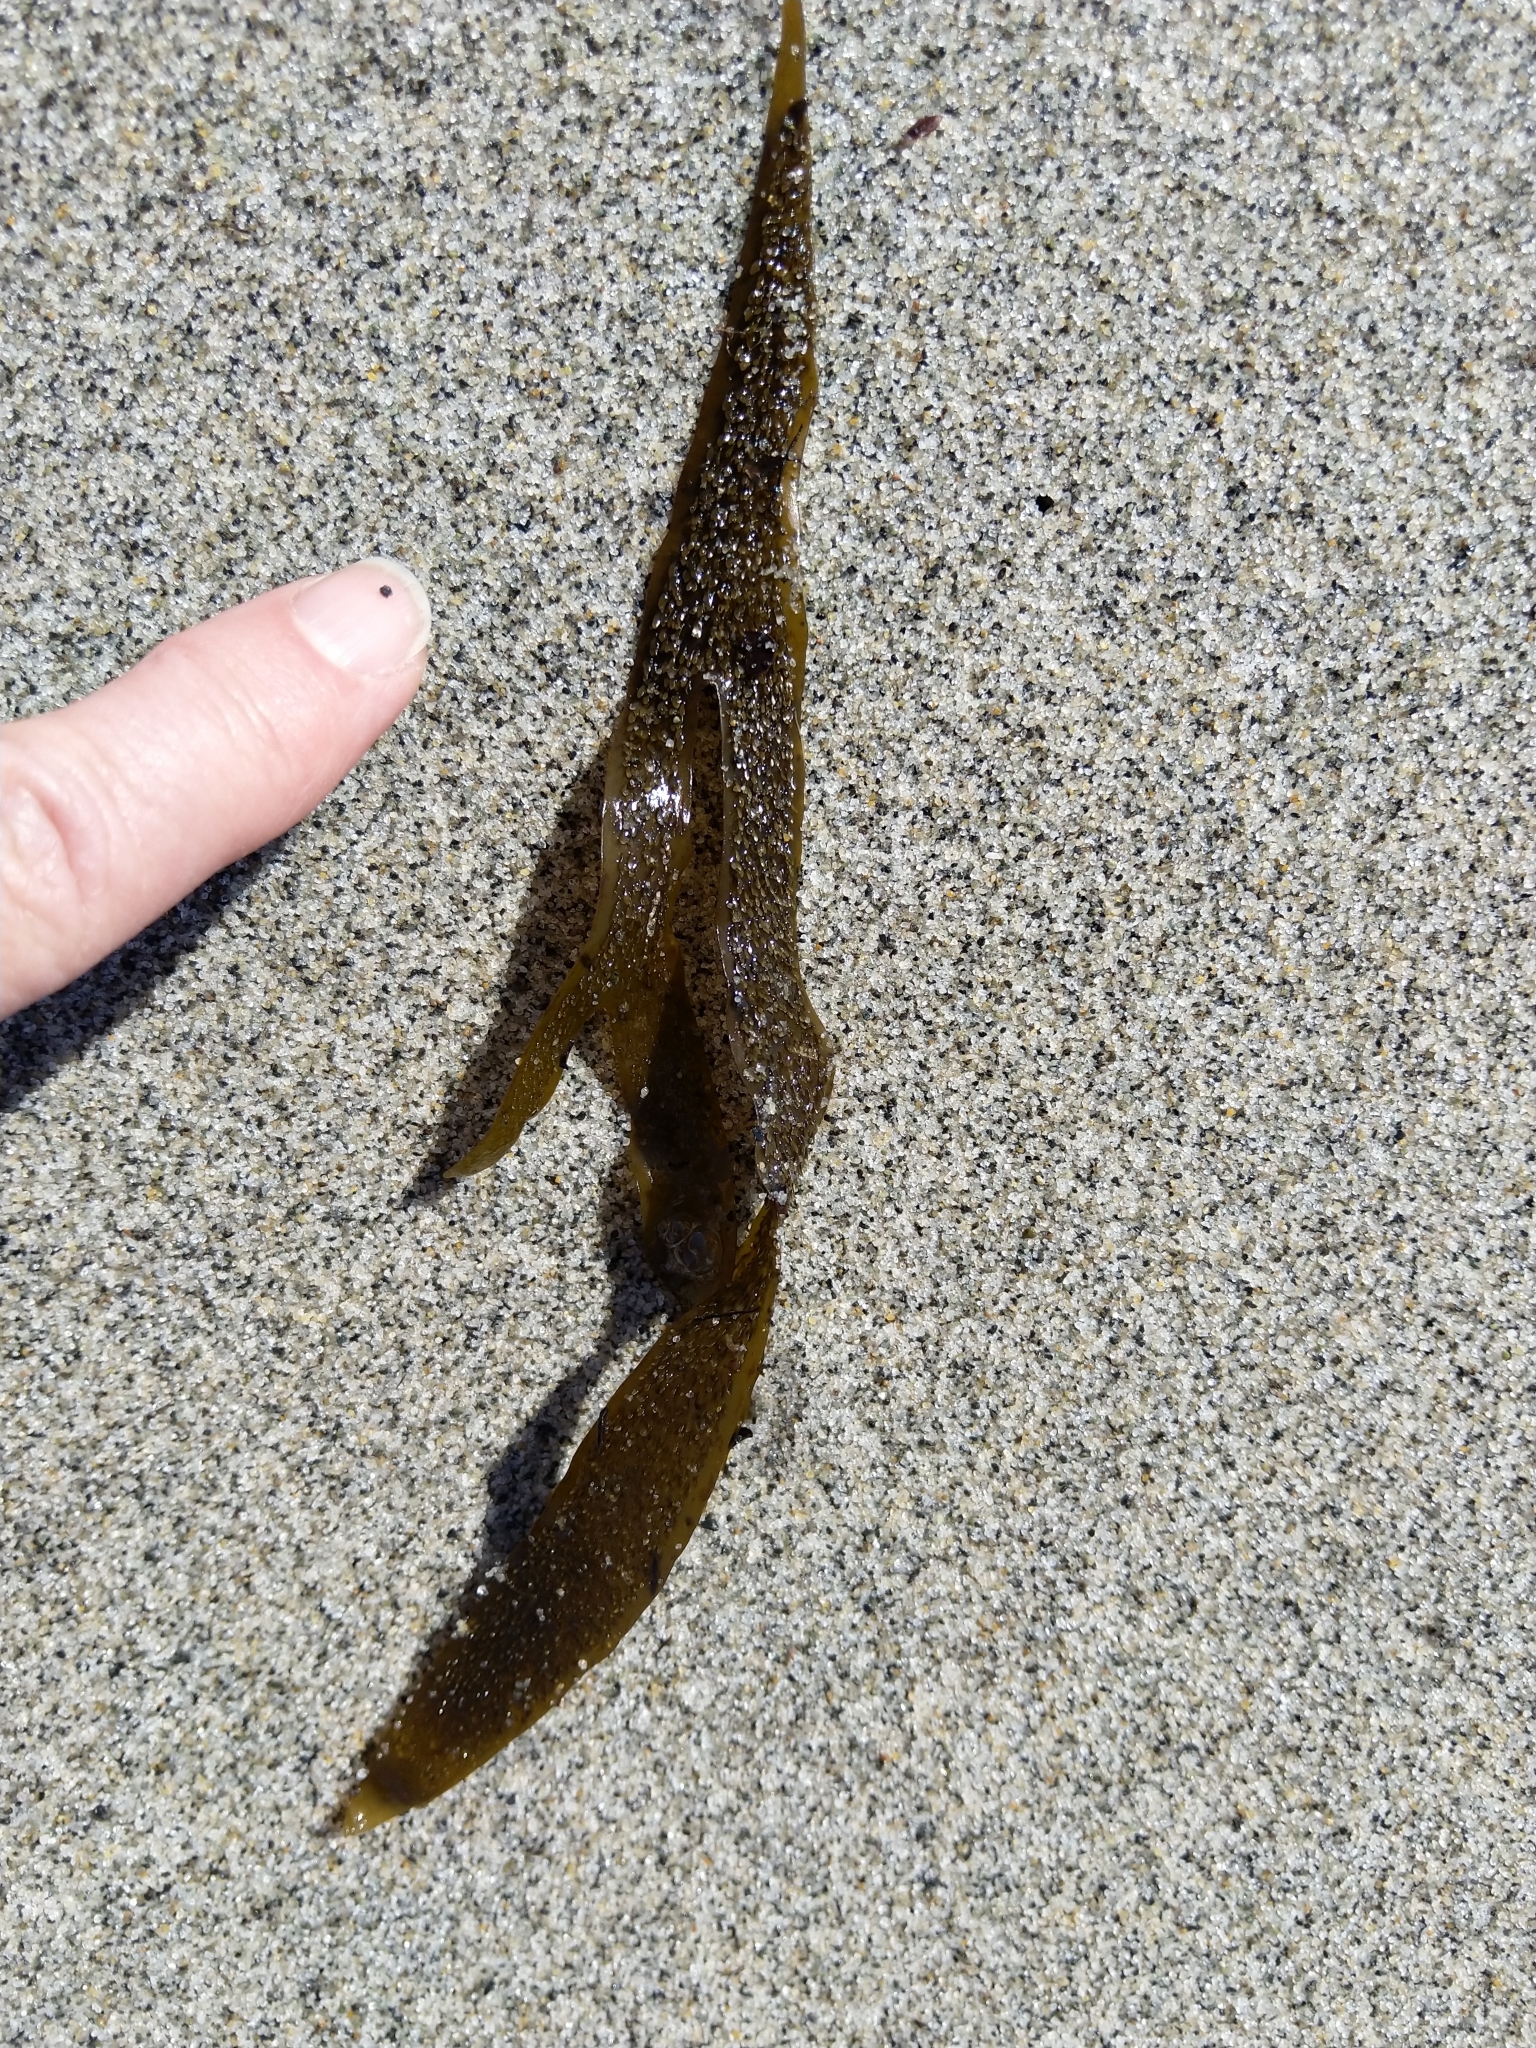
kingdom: Chromista
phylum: Ochrophyta
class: Phaeophyceae
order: Dictyotales
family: Dictyotaceae
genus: Dictyota
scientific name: Dictyota kunthii
